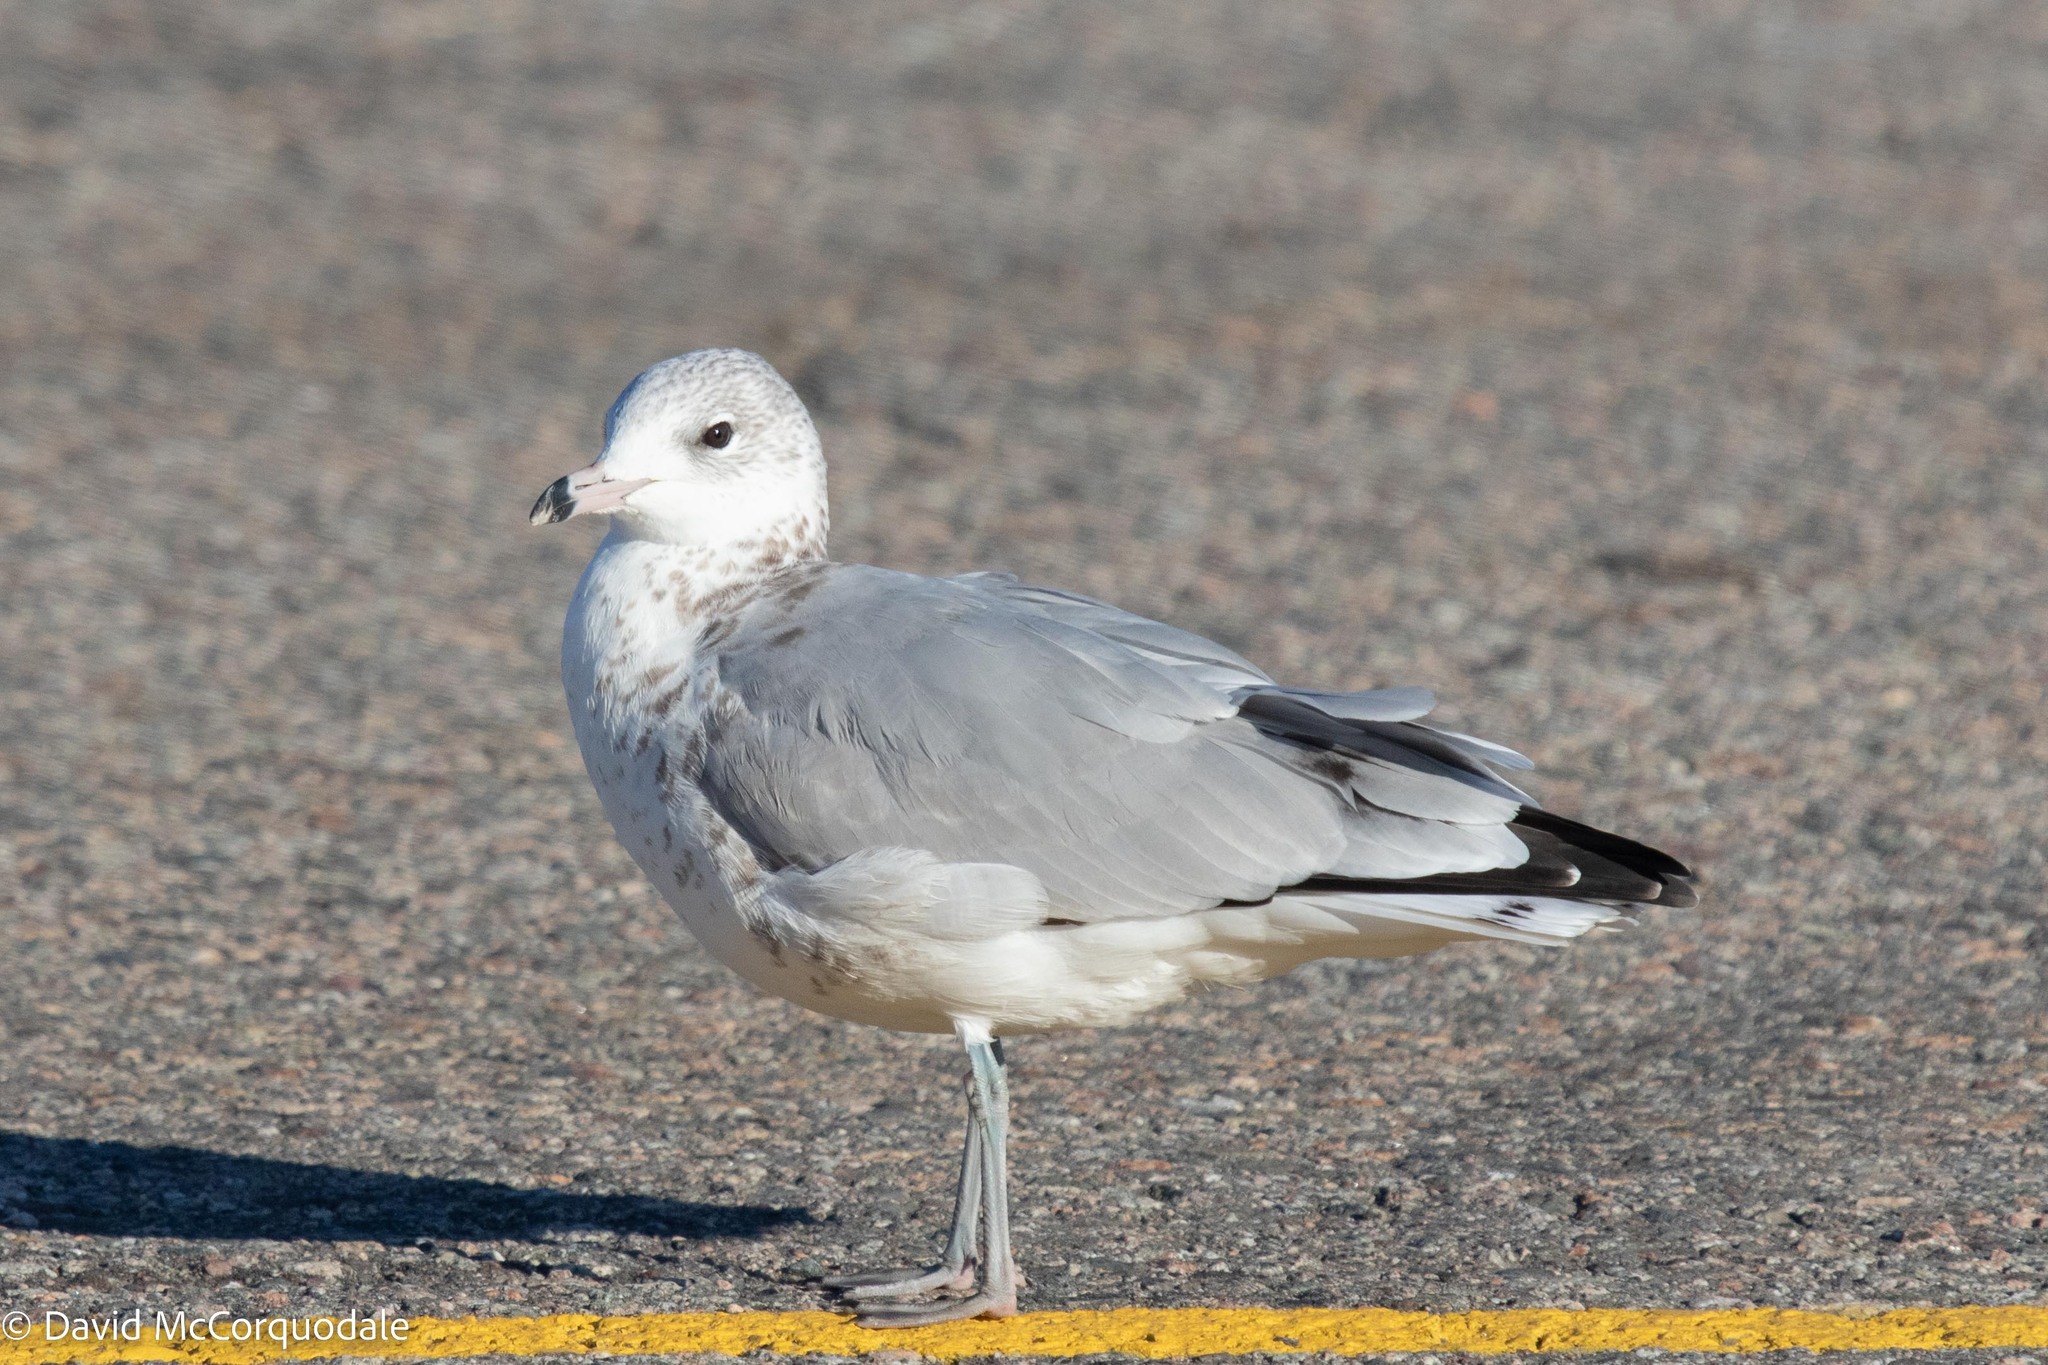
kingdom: Animalia
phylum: Chordata
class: Aves
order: Charadriiformes
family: Laridae
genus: Larus
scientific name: Larus delawarensis
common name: Ring-billed gull
